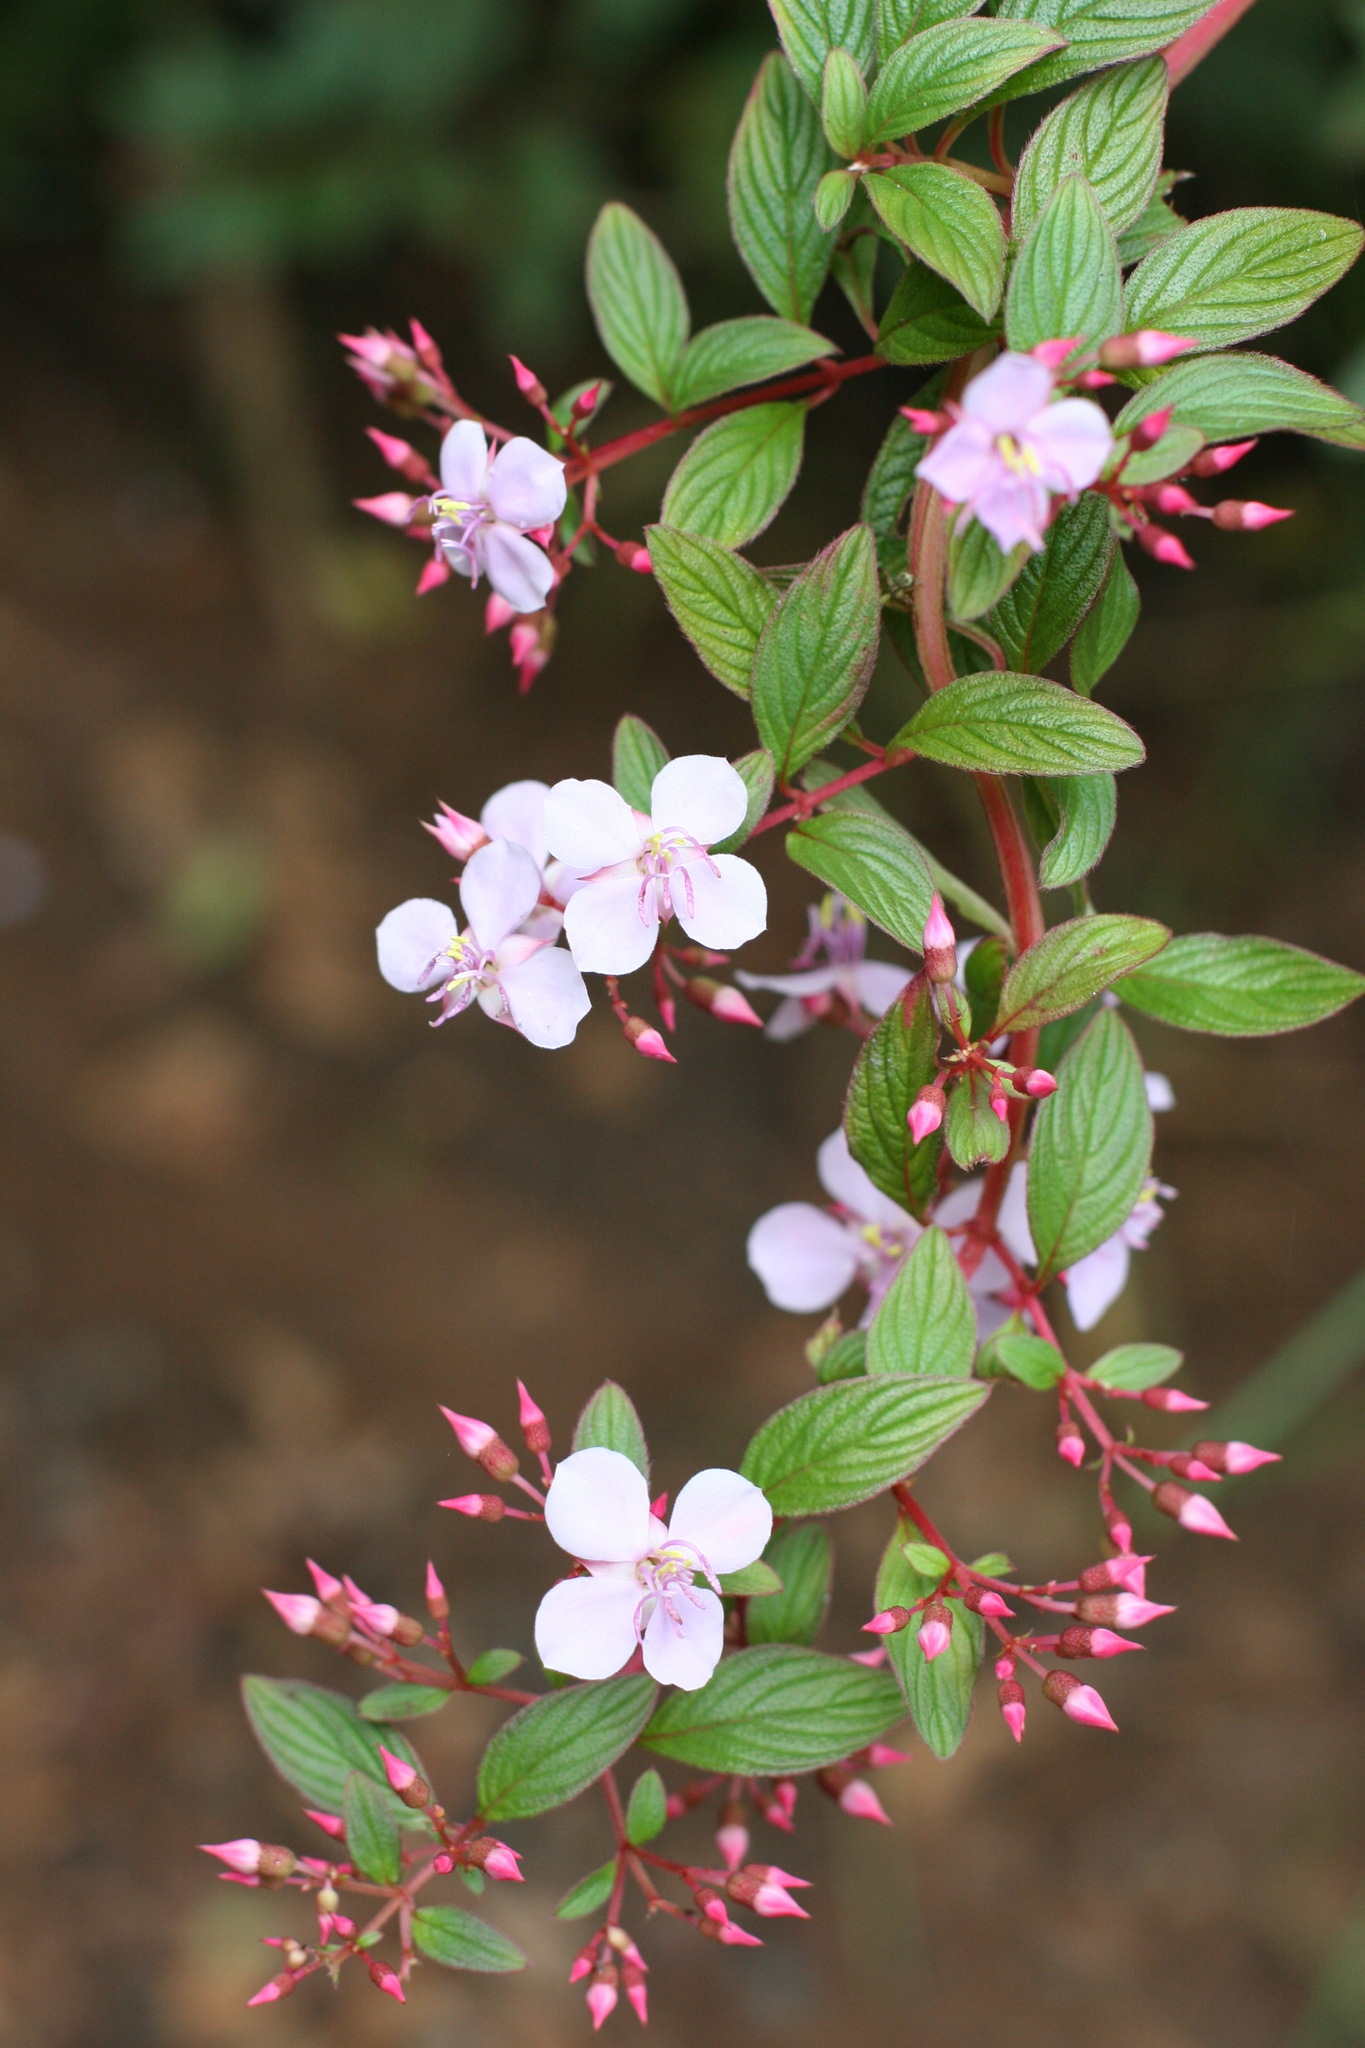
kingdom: Plantae
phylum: Tracheophyta
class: Magnoliopsida
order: Myrtales
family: Melastomataceae
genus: Heterocentron
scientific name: Heterocentron subtriplinervium
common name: Pearl flower
